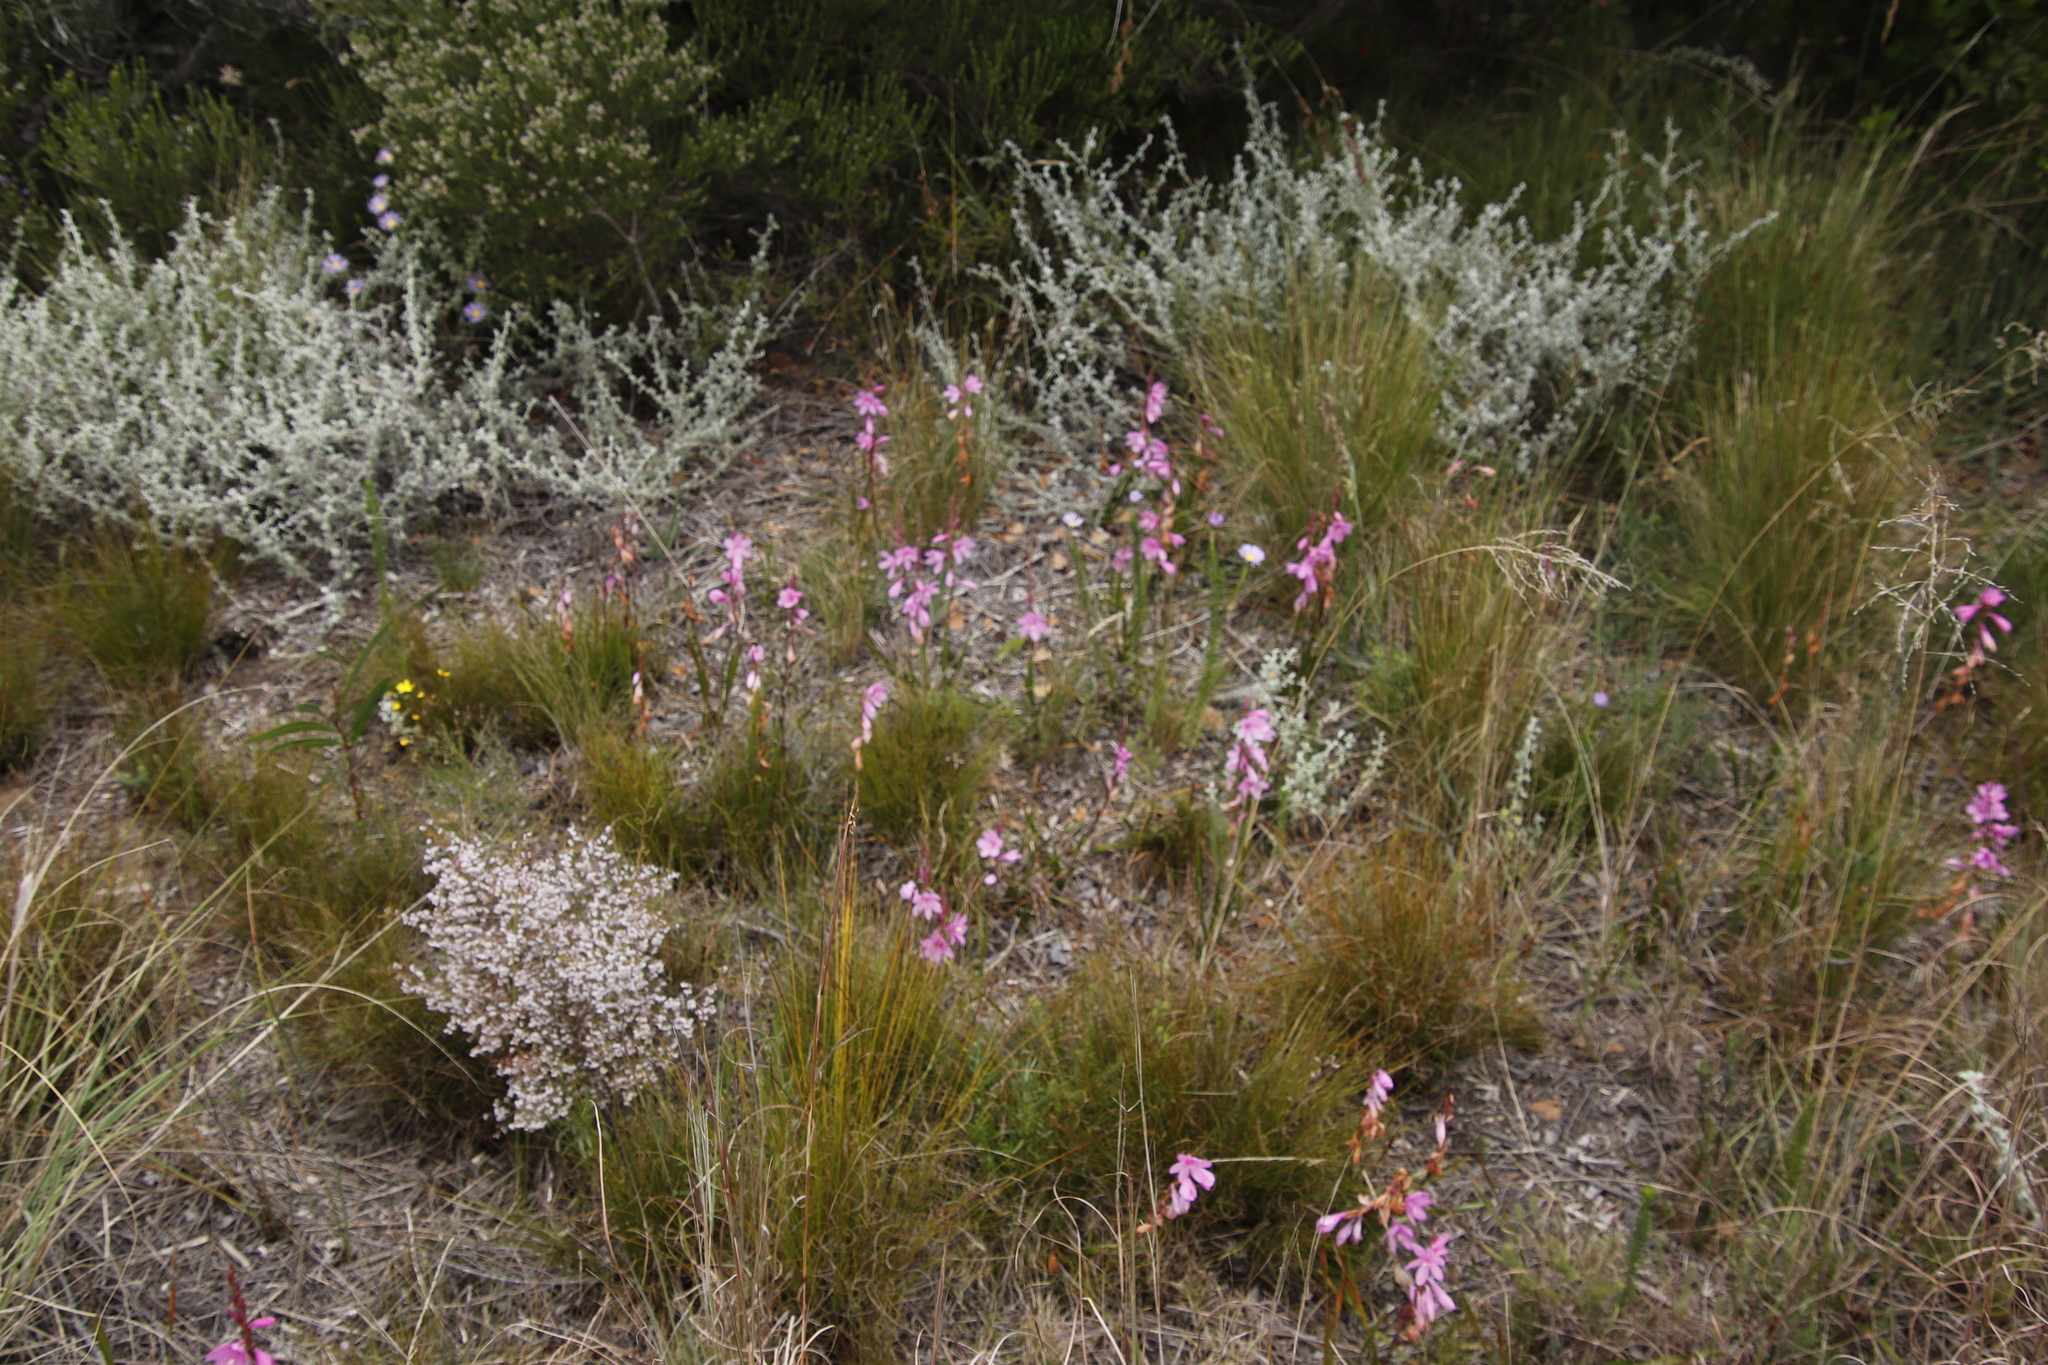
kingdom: Plantae
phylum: Tracheophyta
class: Liliopsida
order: Asparagales
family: Iridaceae
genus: Watsonia
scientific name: Watsonia laccata
